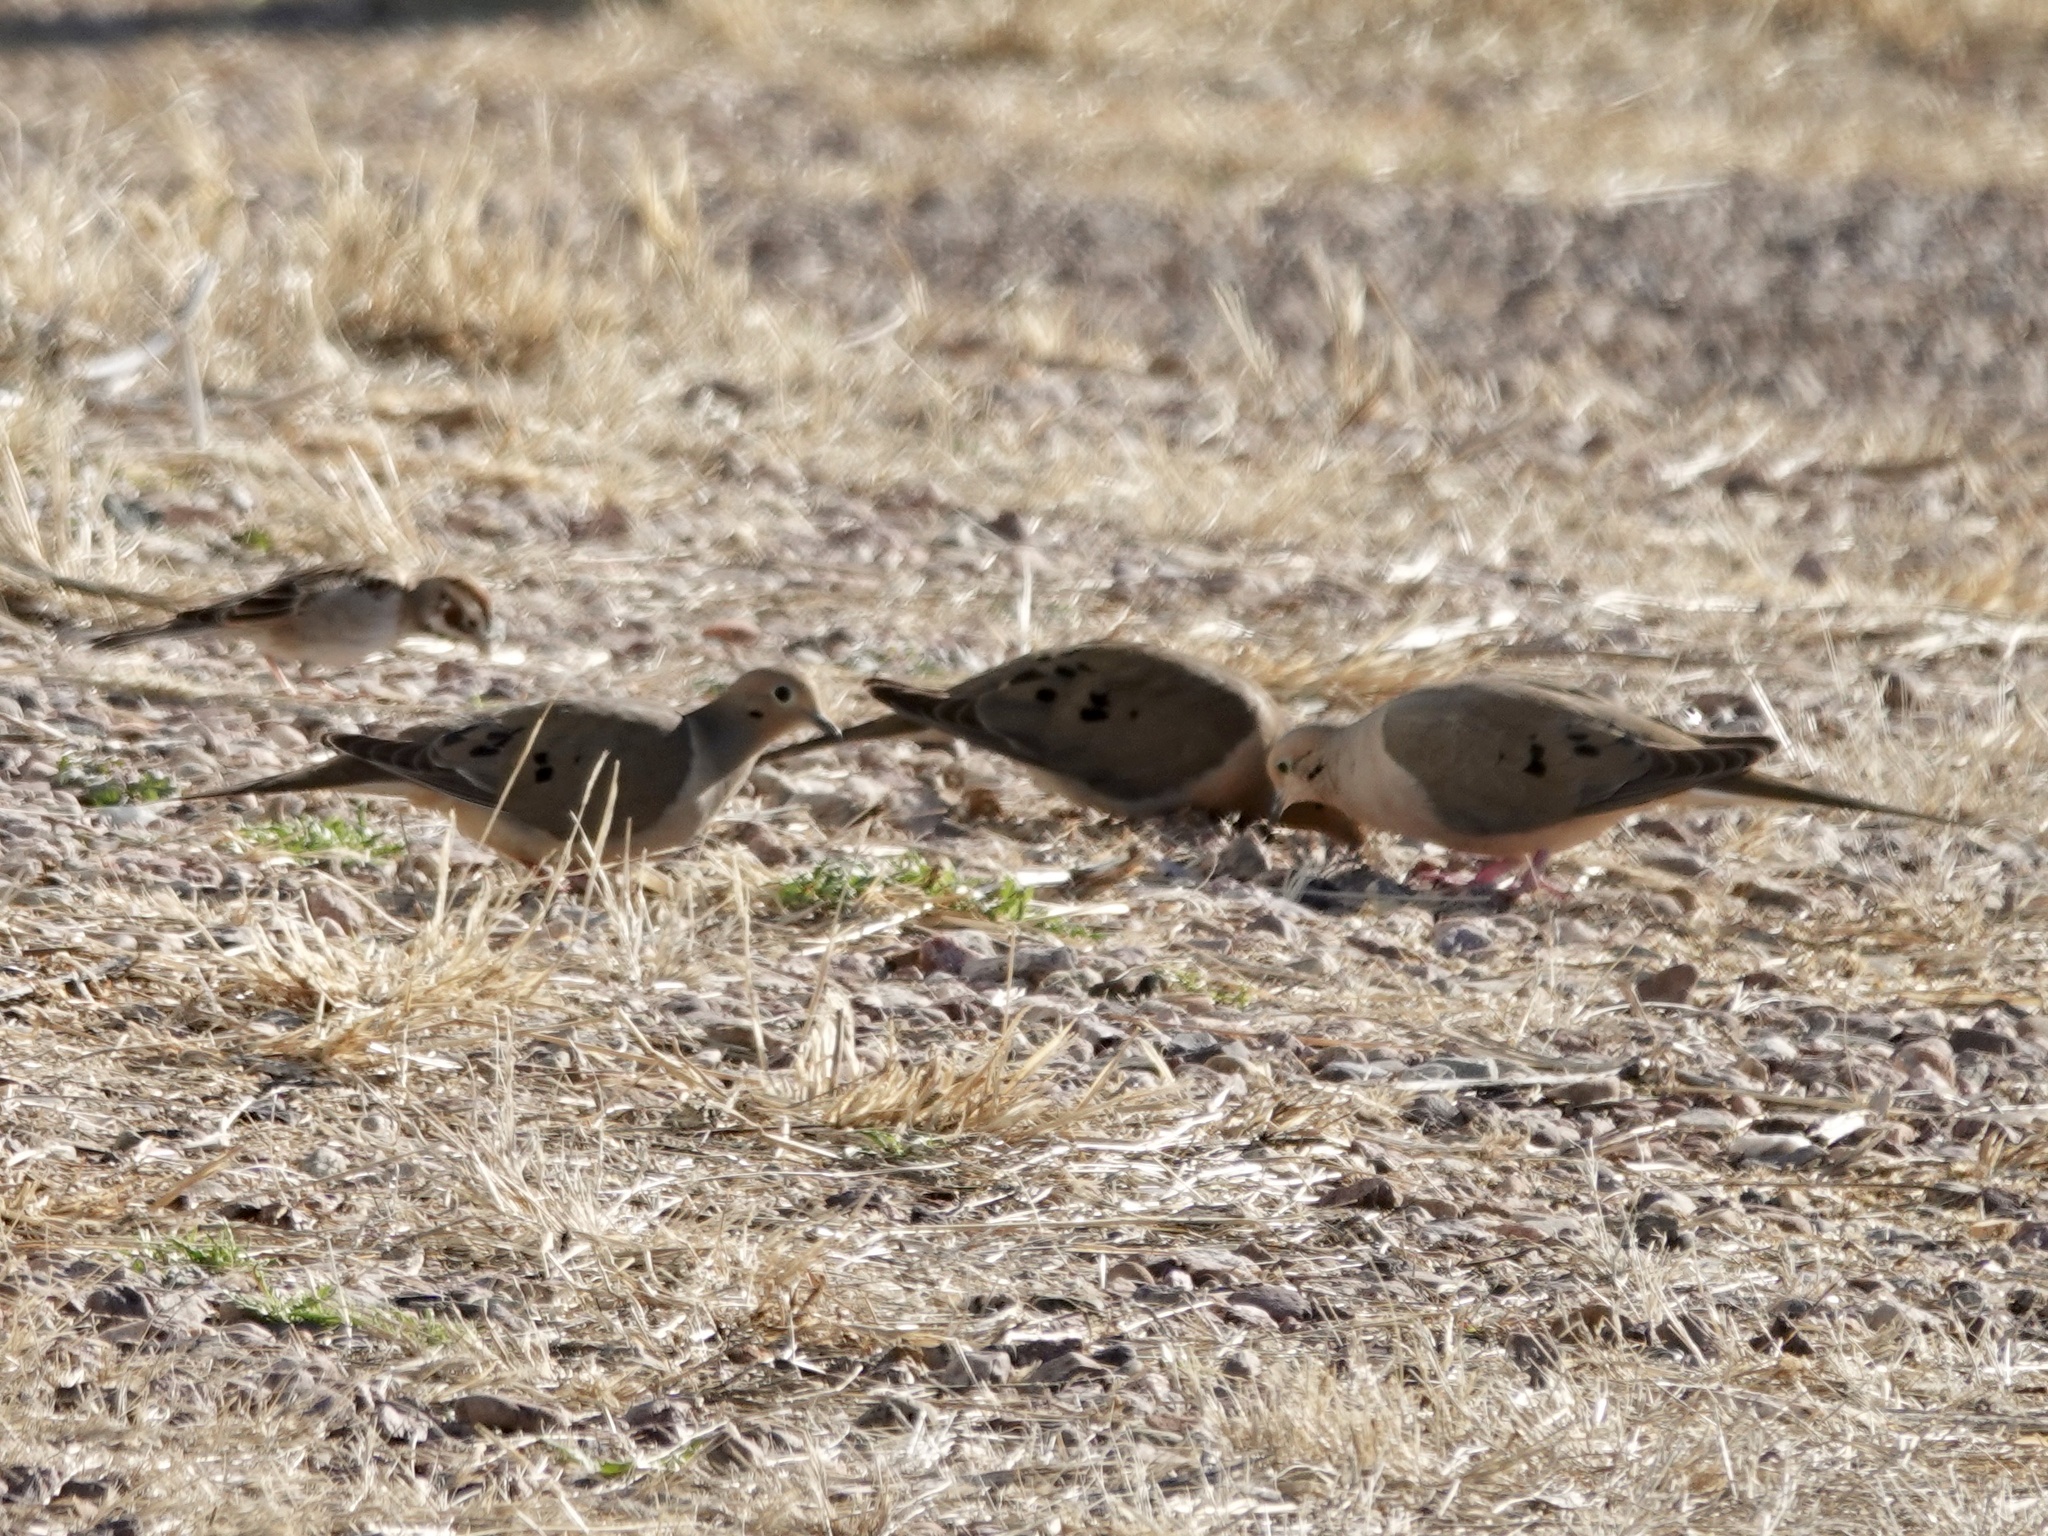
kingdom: Animalia
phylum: Chordata
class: Aves
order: Columbiformes
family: Columbidae
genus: Zenaida
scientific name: Zenaida macroura
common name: Mourning dove
